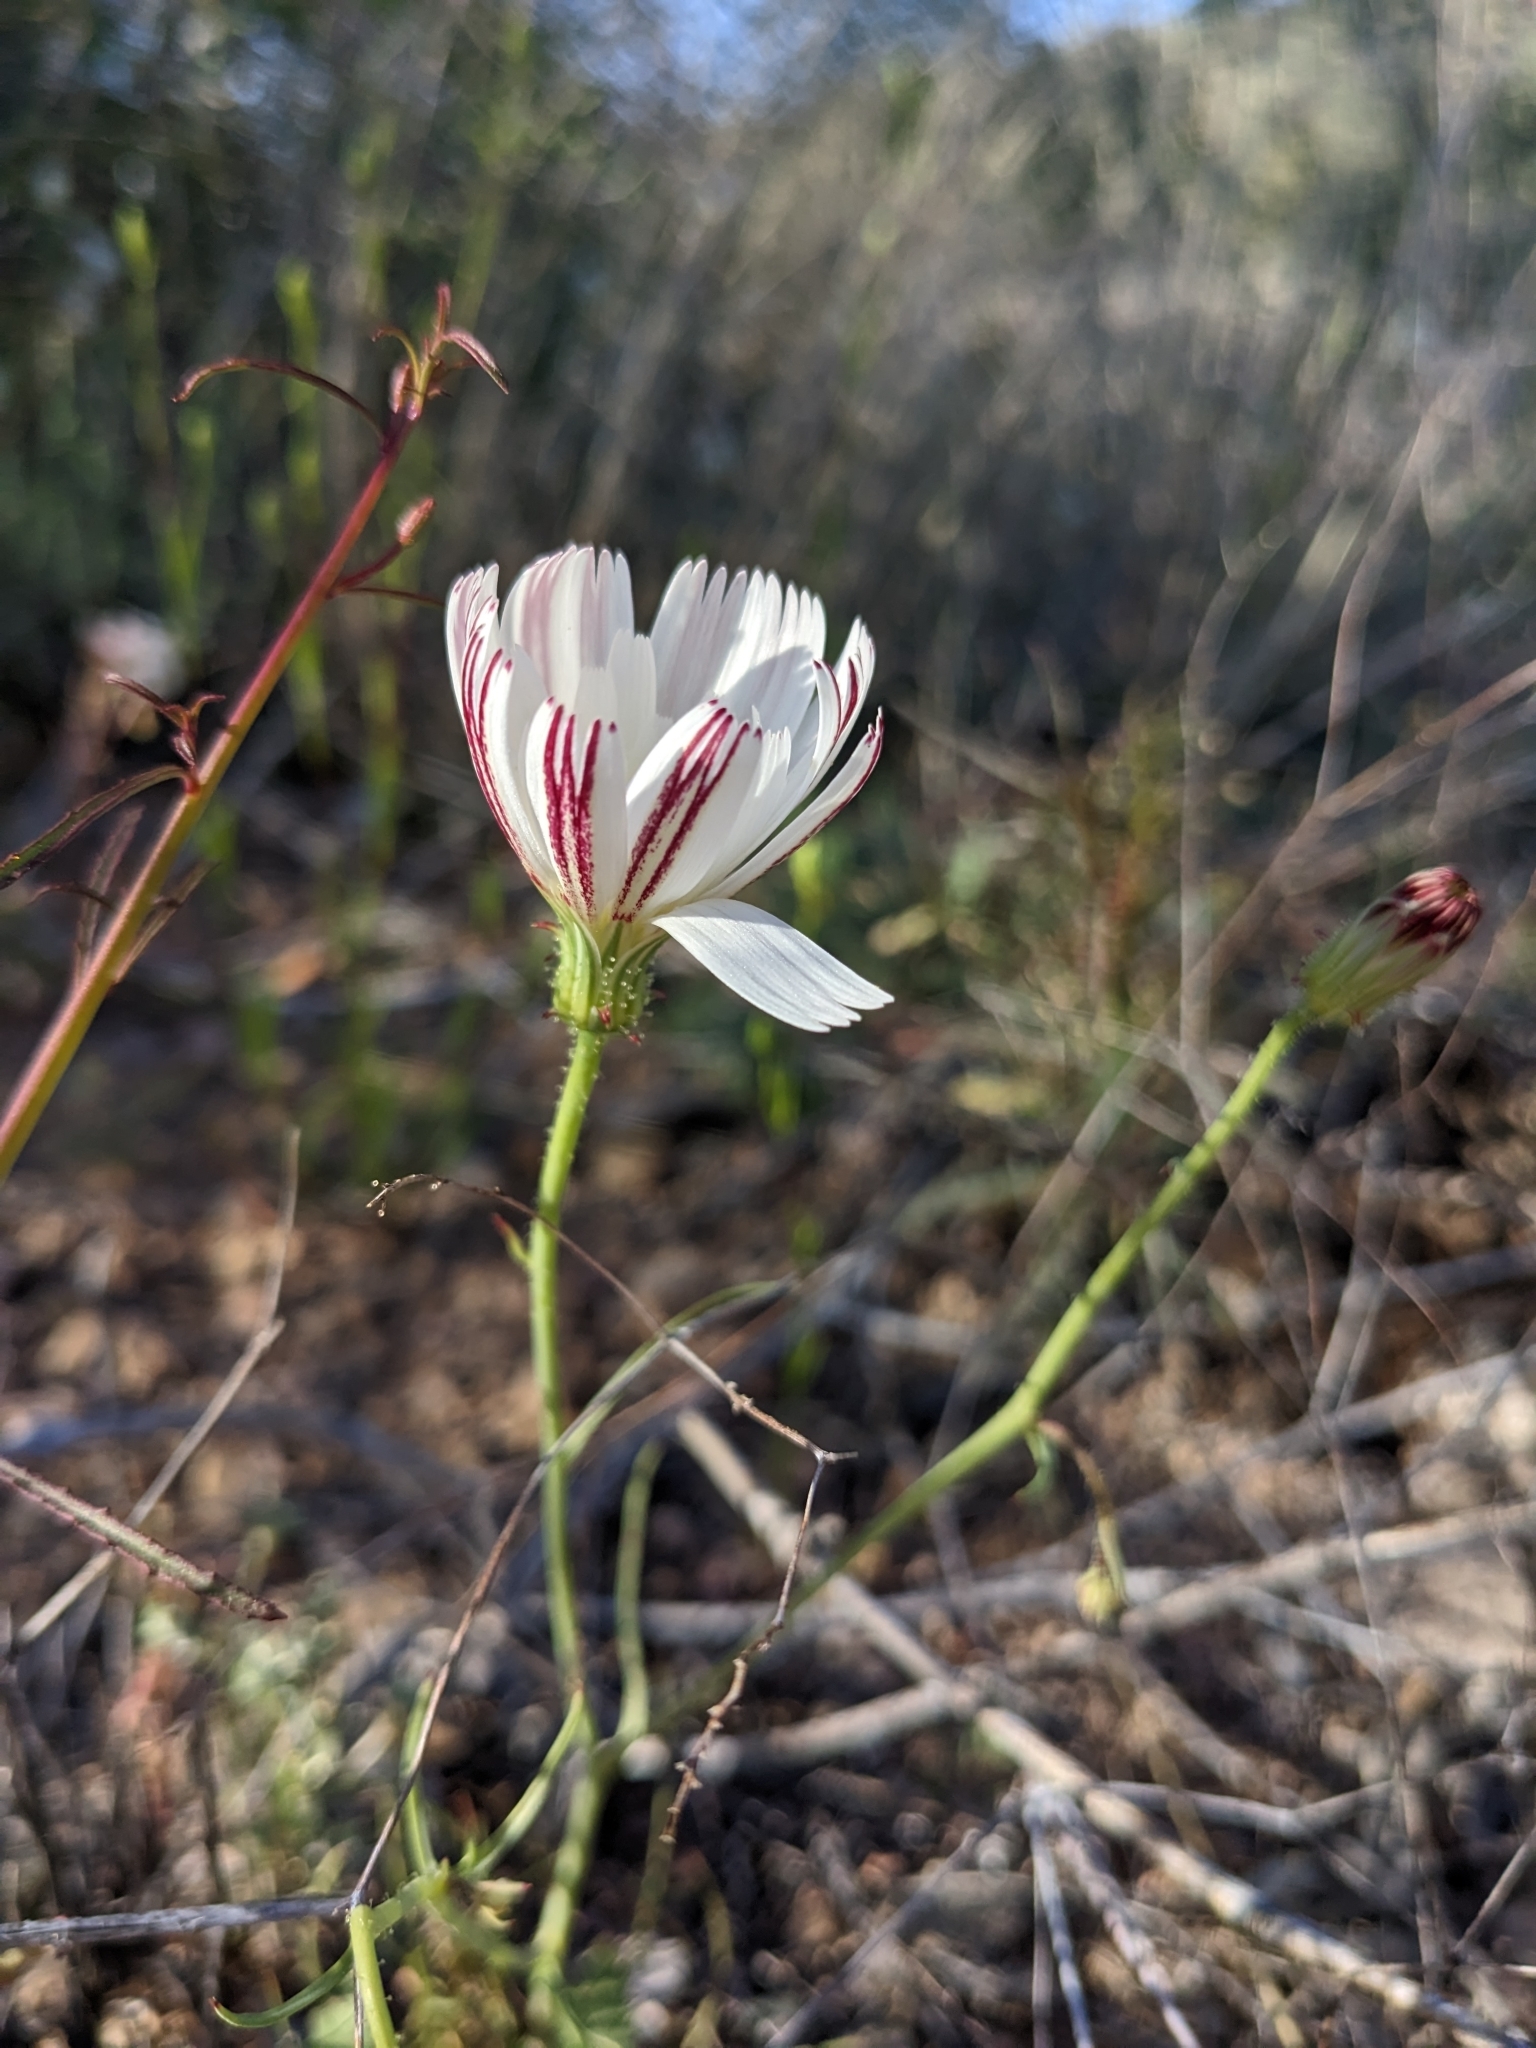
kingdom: Plantae
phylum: Tracheophyta
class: Magnoliopsida
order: Asterales
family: Asteraceae
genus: Calycoseris
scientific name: Calycoseris wrightii
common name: White tackstem
